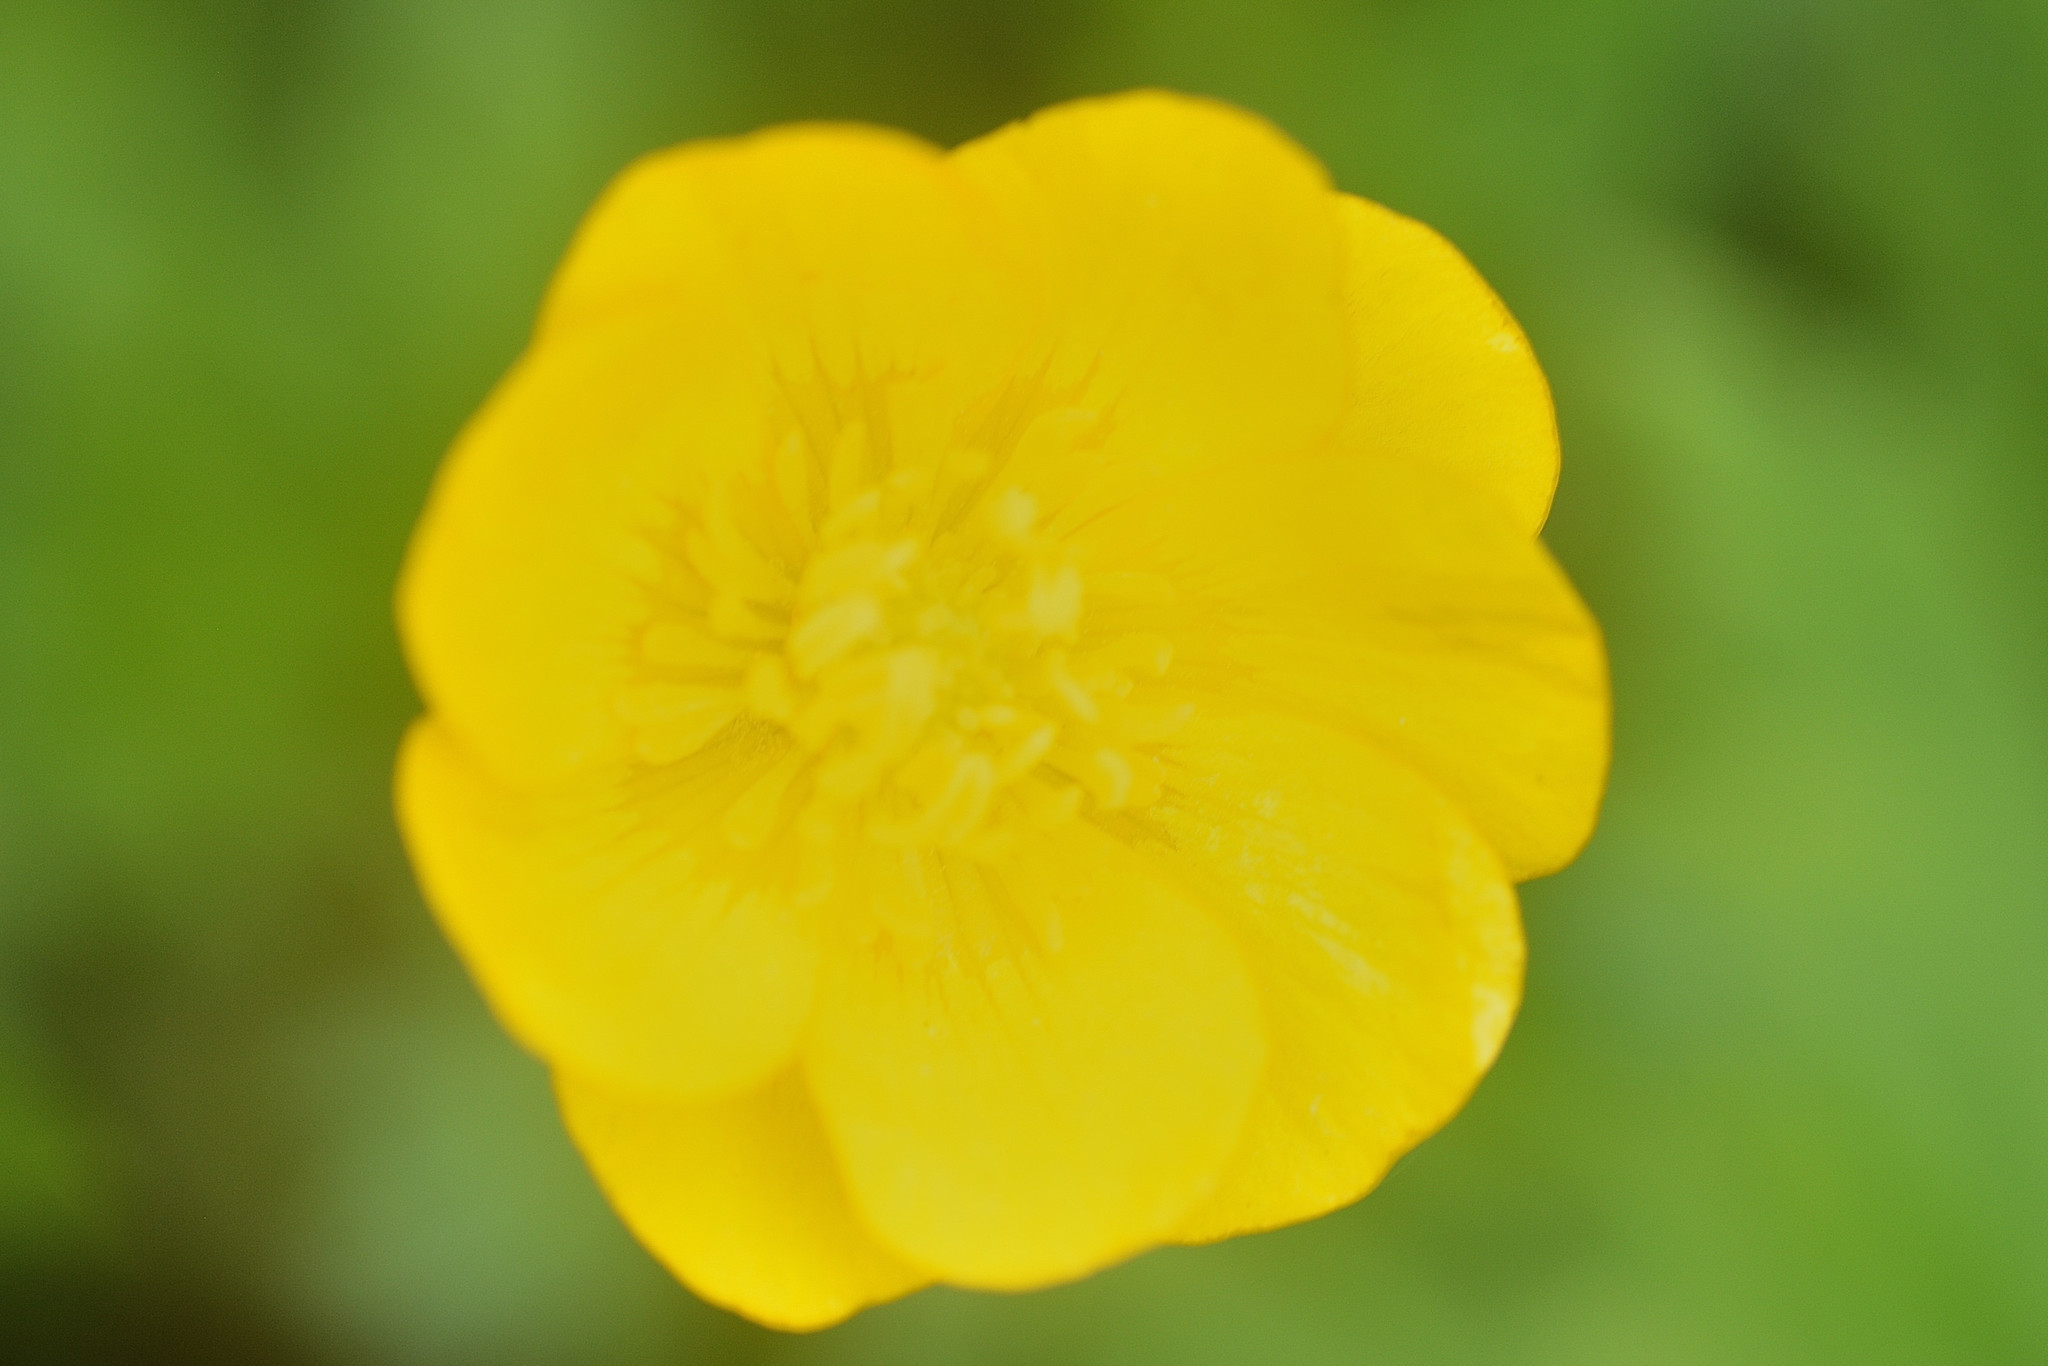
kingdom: Plantae
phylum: Tracheophyta
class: Magnoliopsida
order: Ranunculales
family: Ranunculaceae
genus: Ranunculus
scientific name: Ranunculus repens
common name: Creeping buttercup
